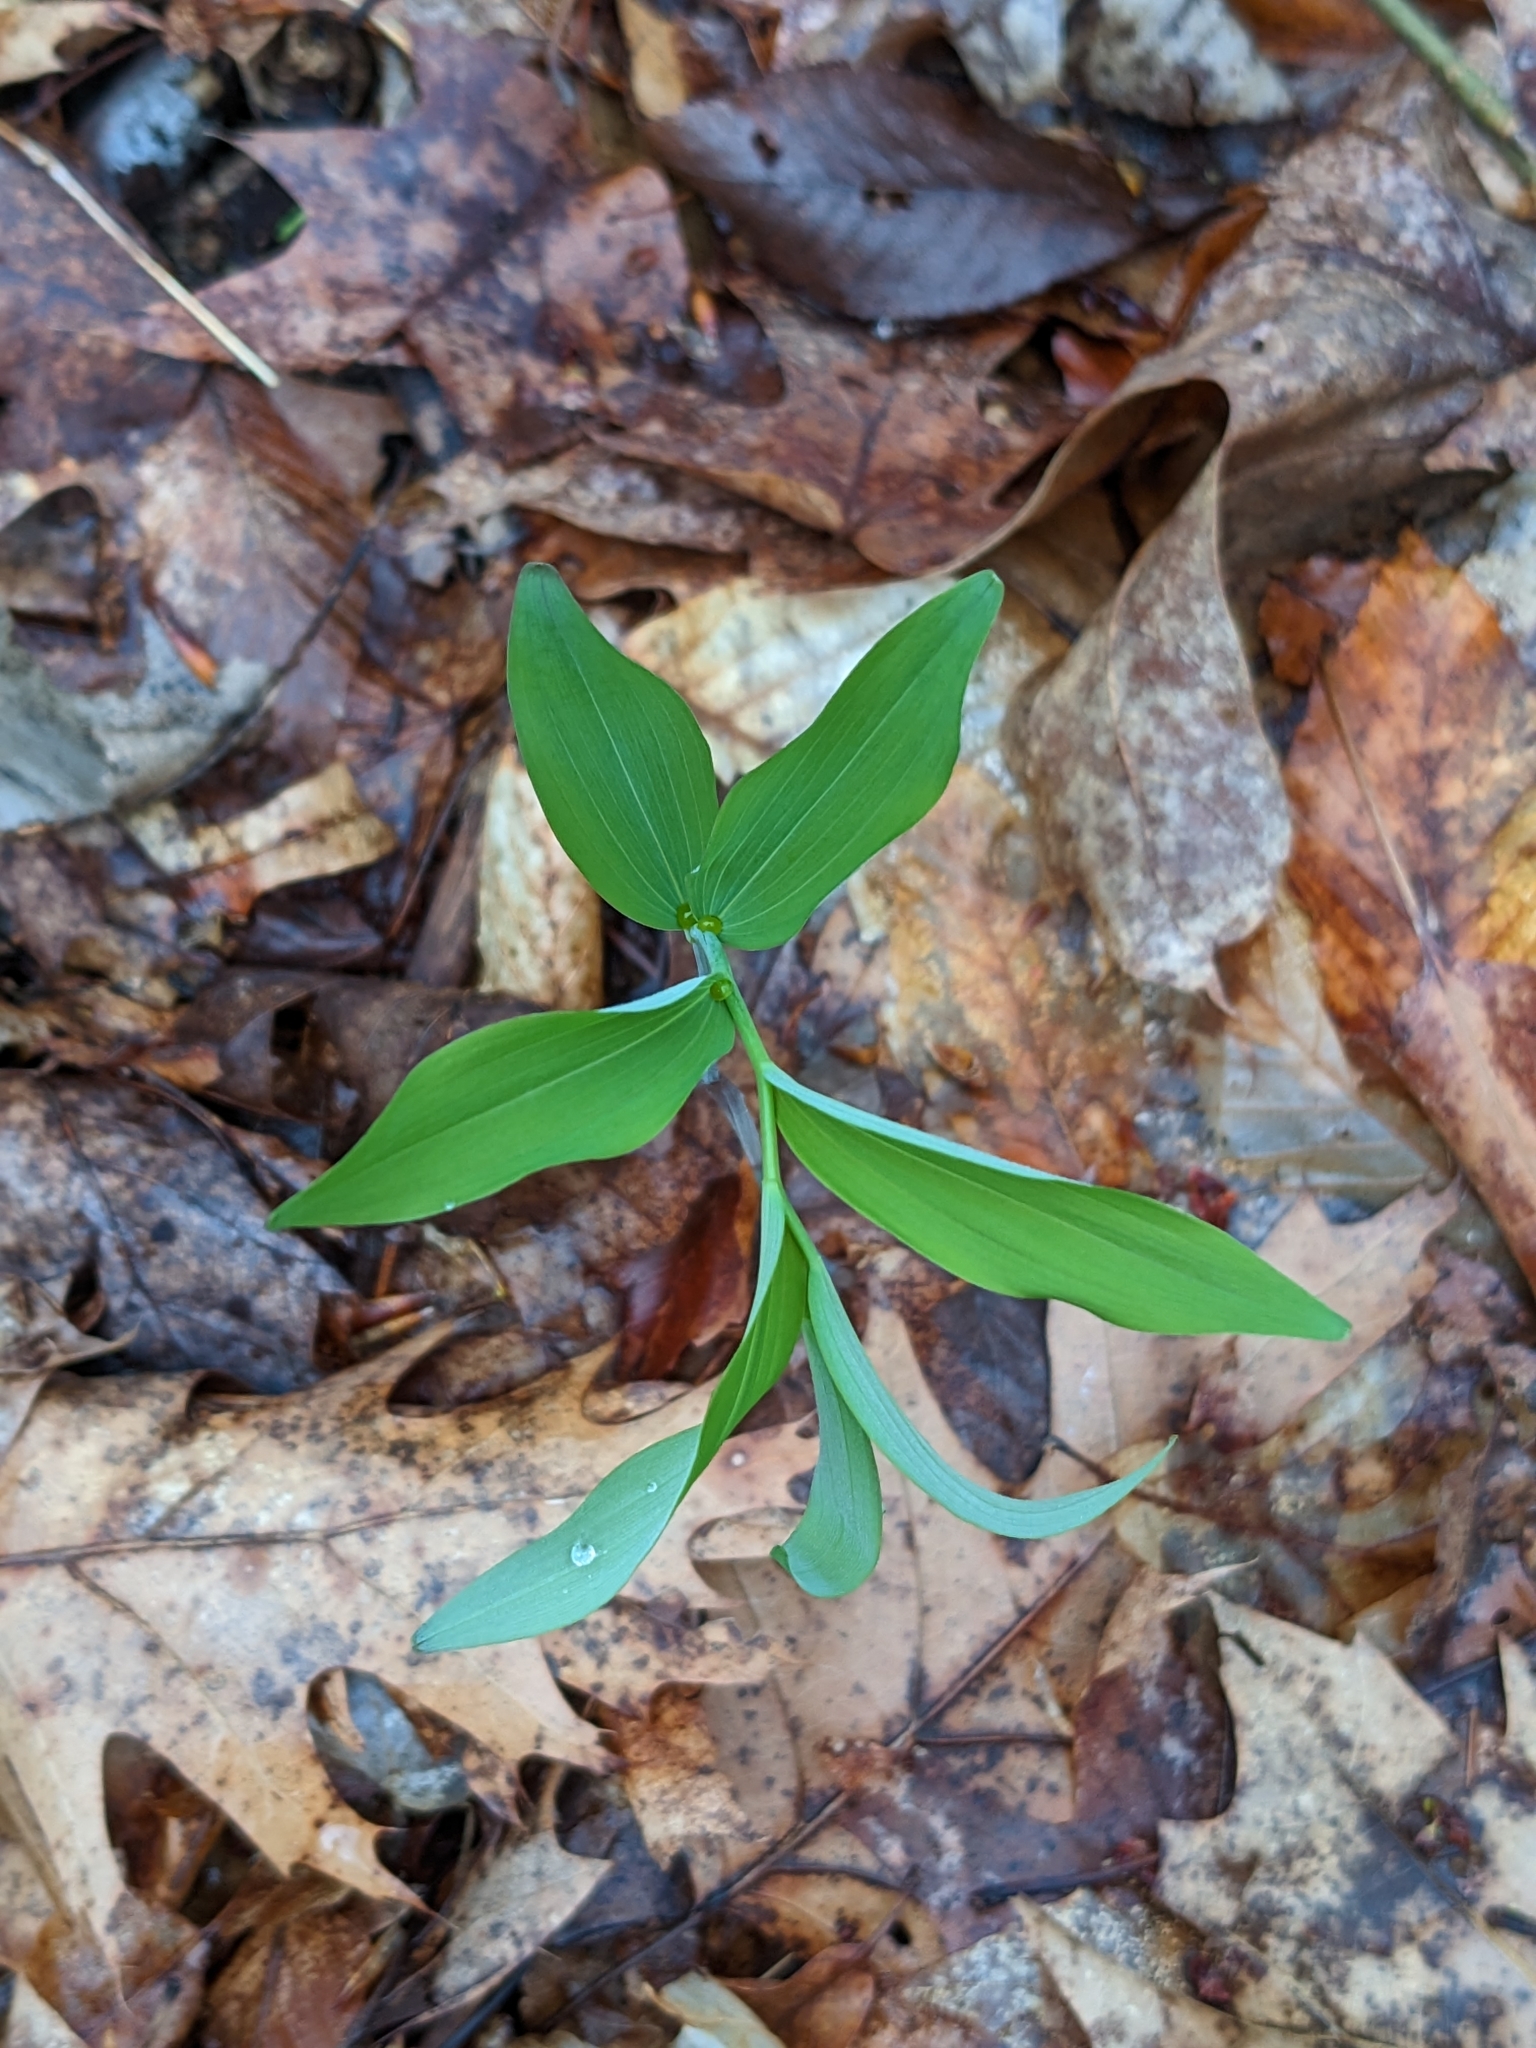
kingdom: Plantae
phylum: Tracheophyta
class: Liliopsida
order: Asparagales
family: Asparagaceae
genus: Maianthemum
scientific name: Maianthemum racemosum
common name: False spikenard
